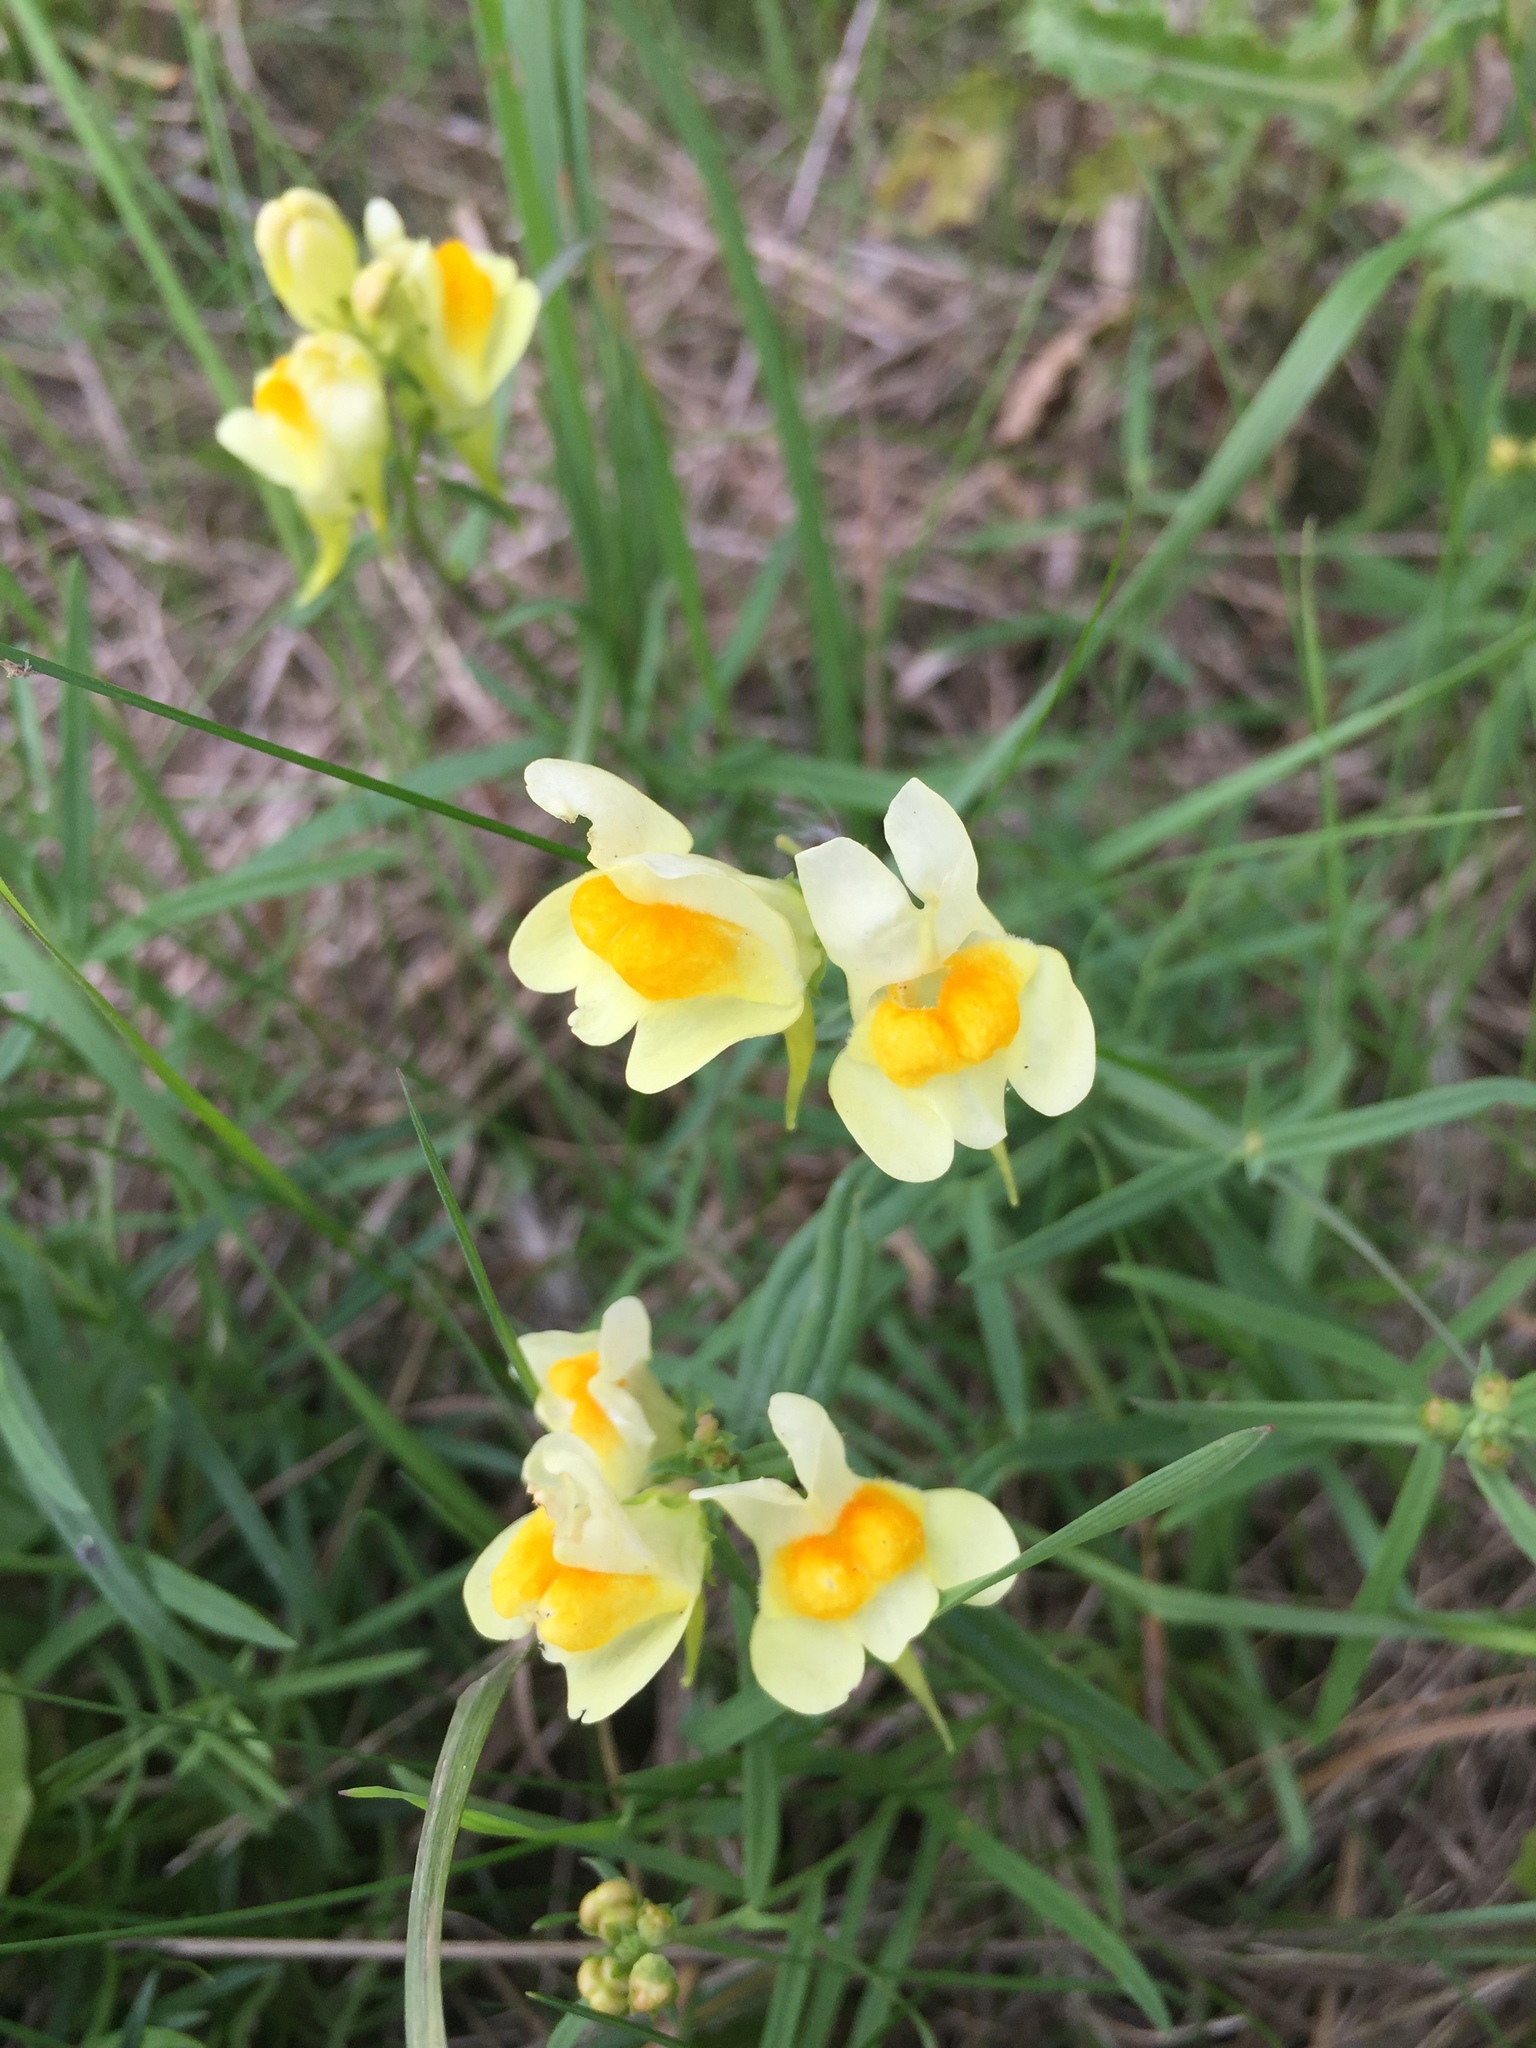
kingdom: Plantae
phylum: Tracheophyta
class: Magnoliopsida
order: Lamiales
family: Plantaginaceae
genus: Linaria
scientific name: Linaria vulgaris
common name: Butter and eggs
